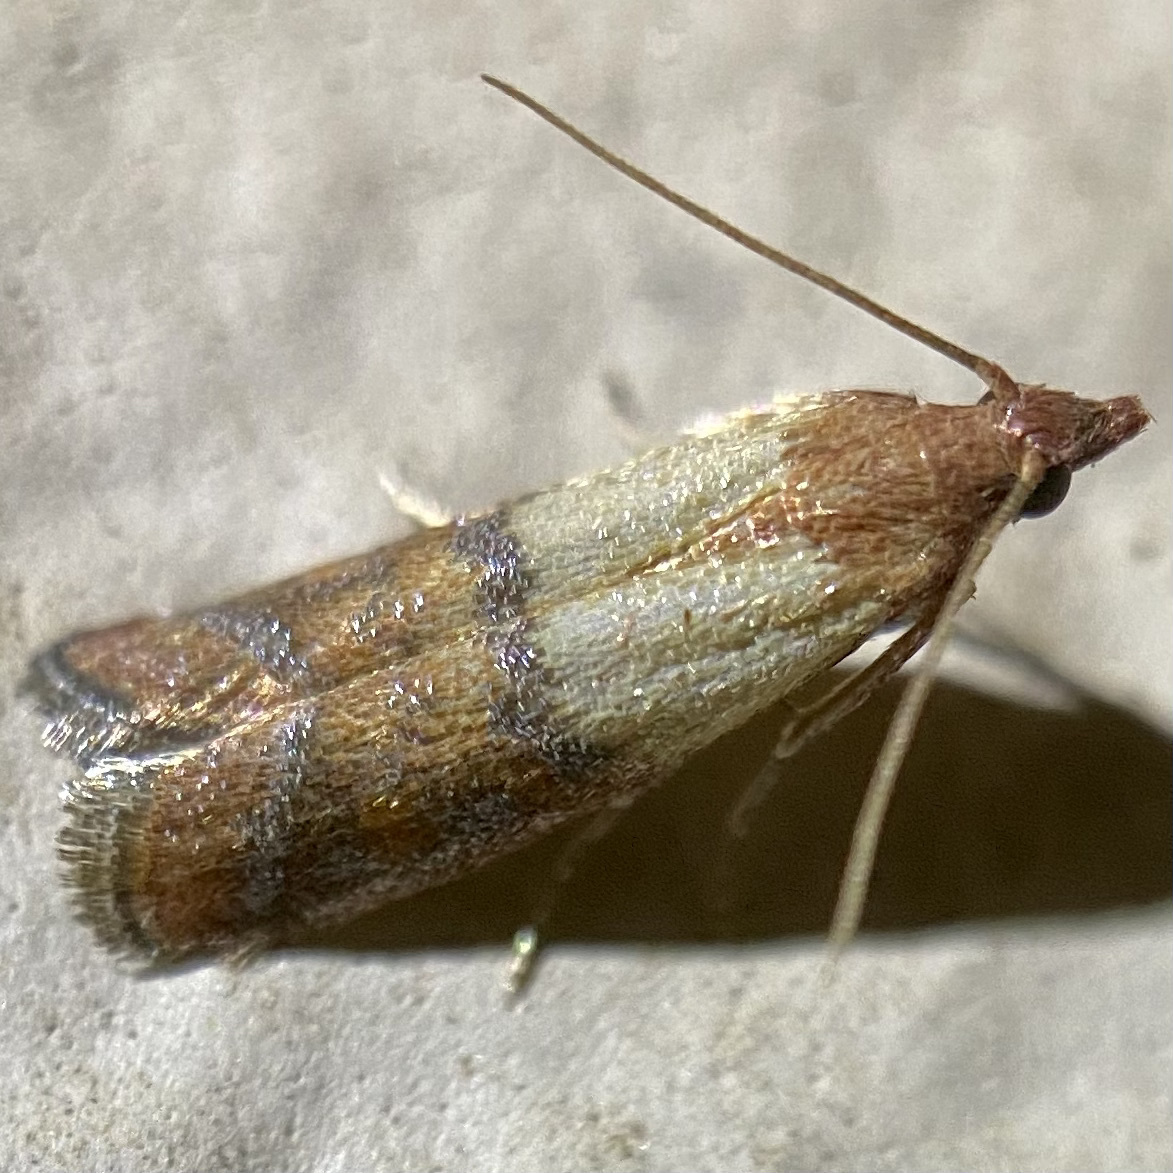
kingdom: Animalia
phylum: Arthropoda
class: Insecta
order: Lepidoptera
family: Pyralidae
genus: Plodia
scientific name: Plodia interpunctella
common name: Indian meal moth
